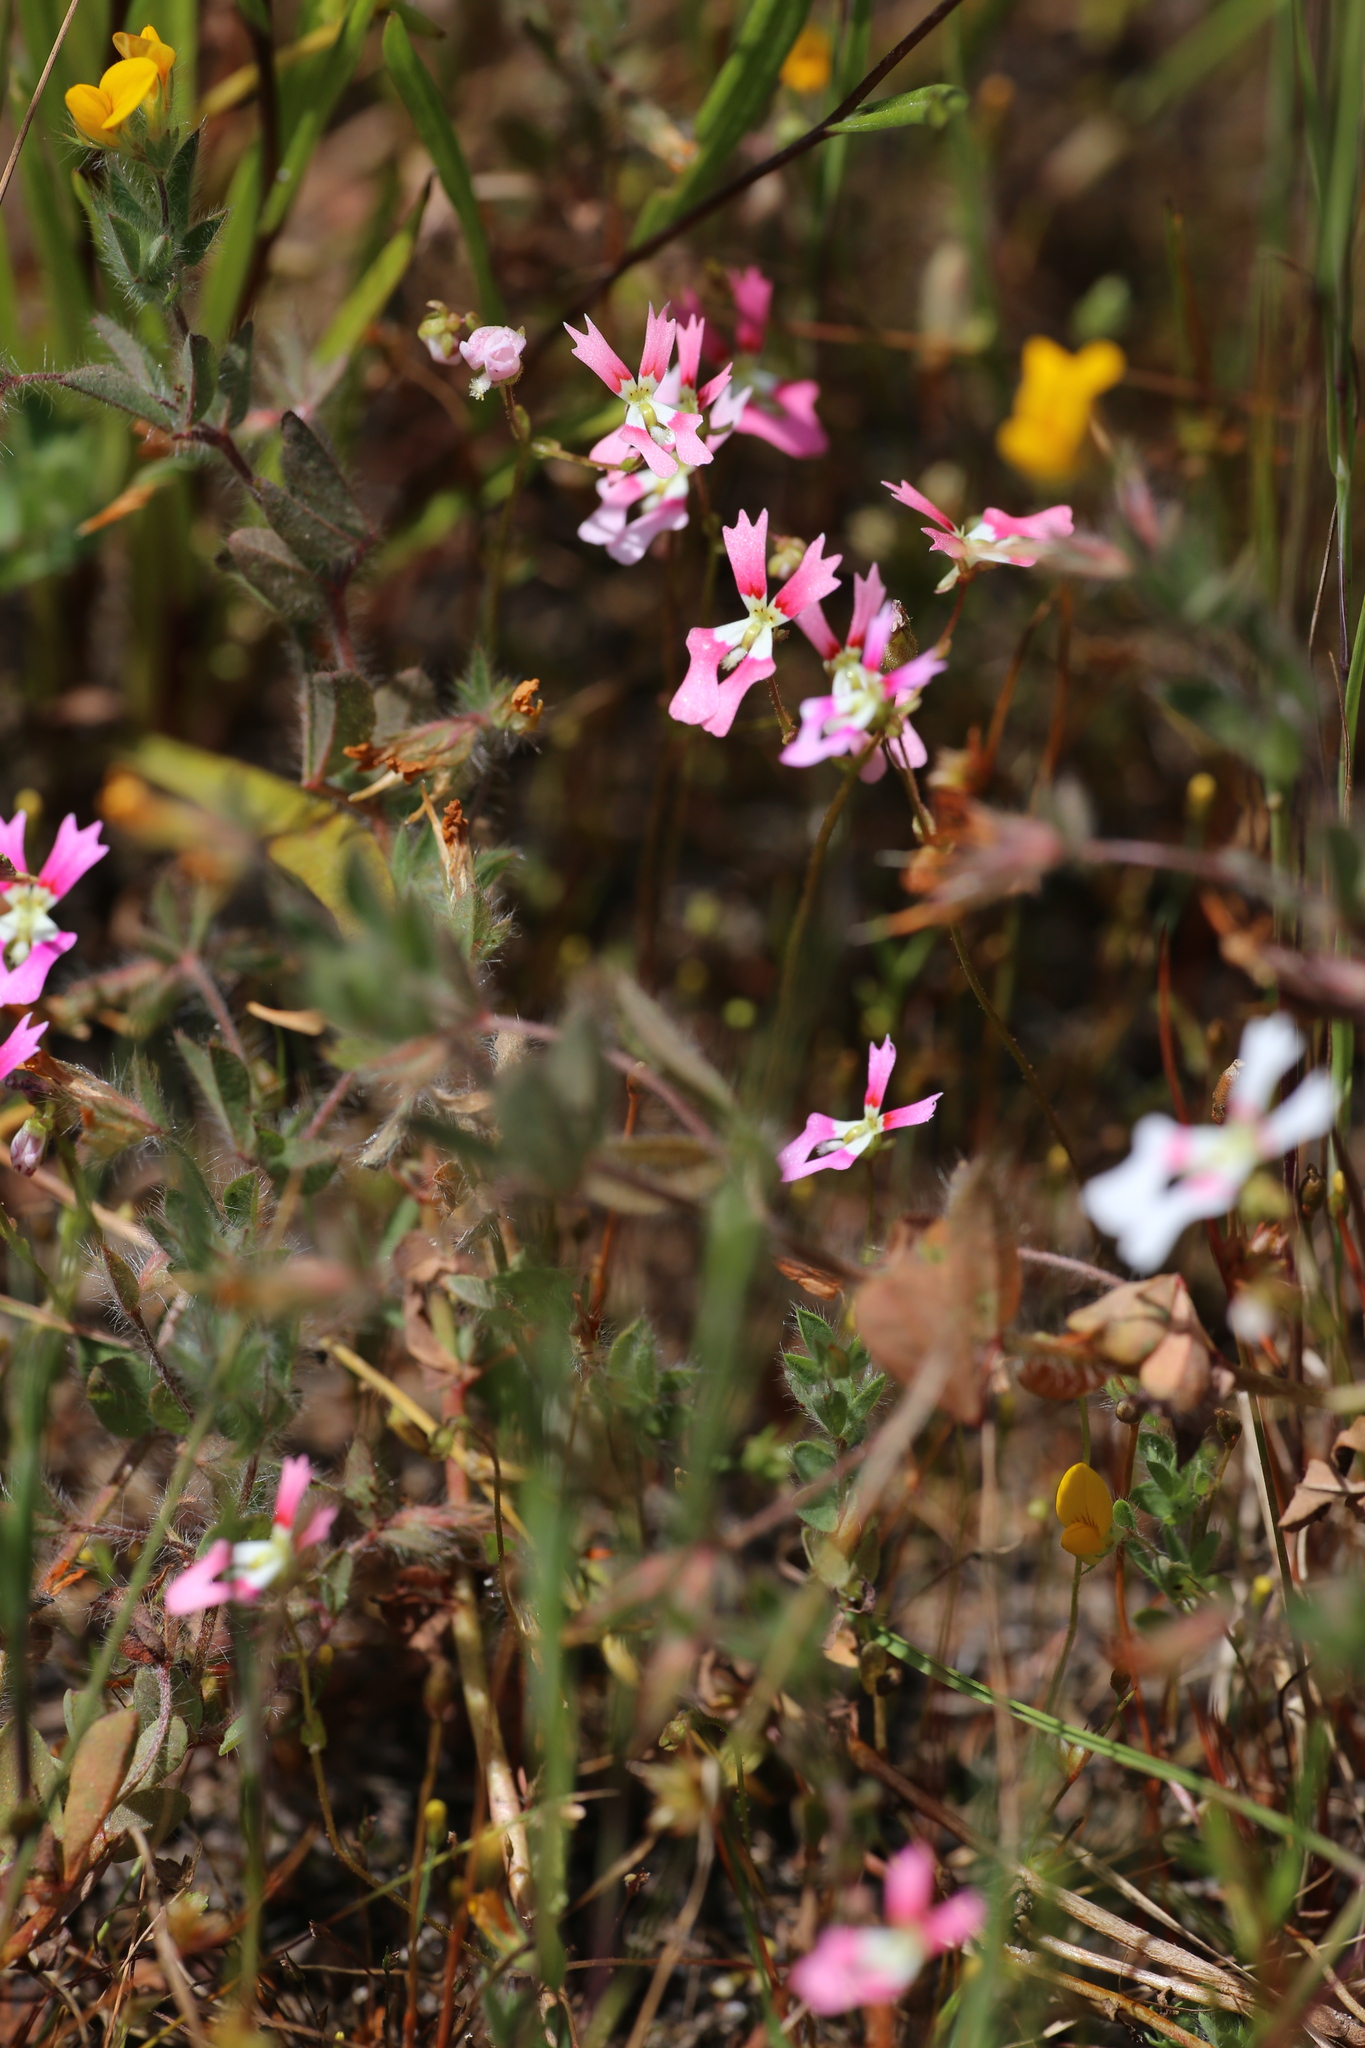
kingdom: Plantae
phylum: Tracheophyta
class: Magnoliopsida
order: Asterales
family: Stylidiaceae
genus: Stylidium
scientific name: Stylidium ecorne
